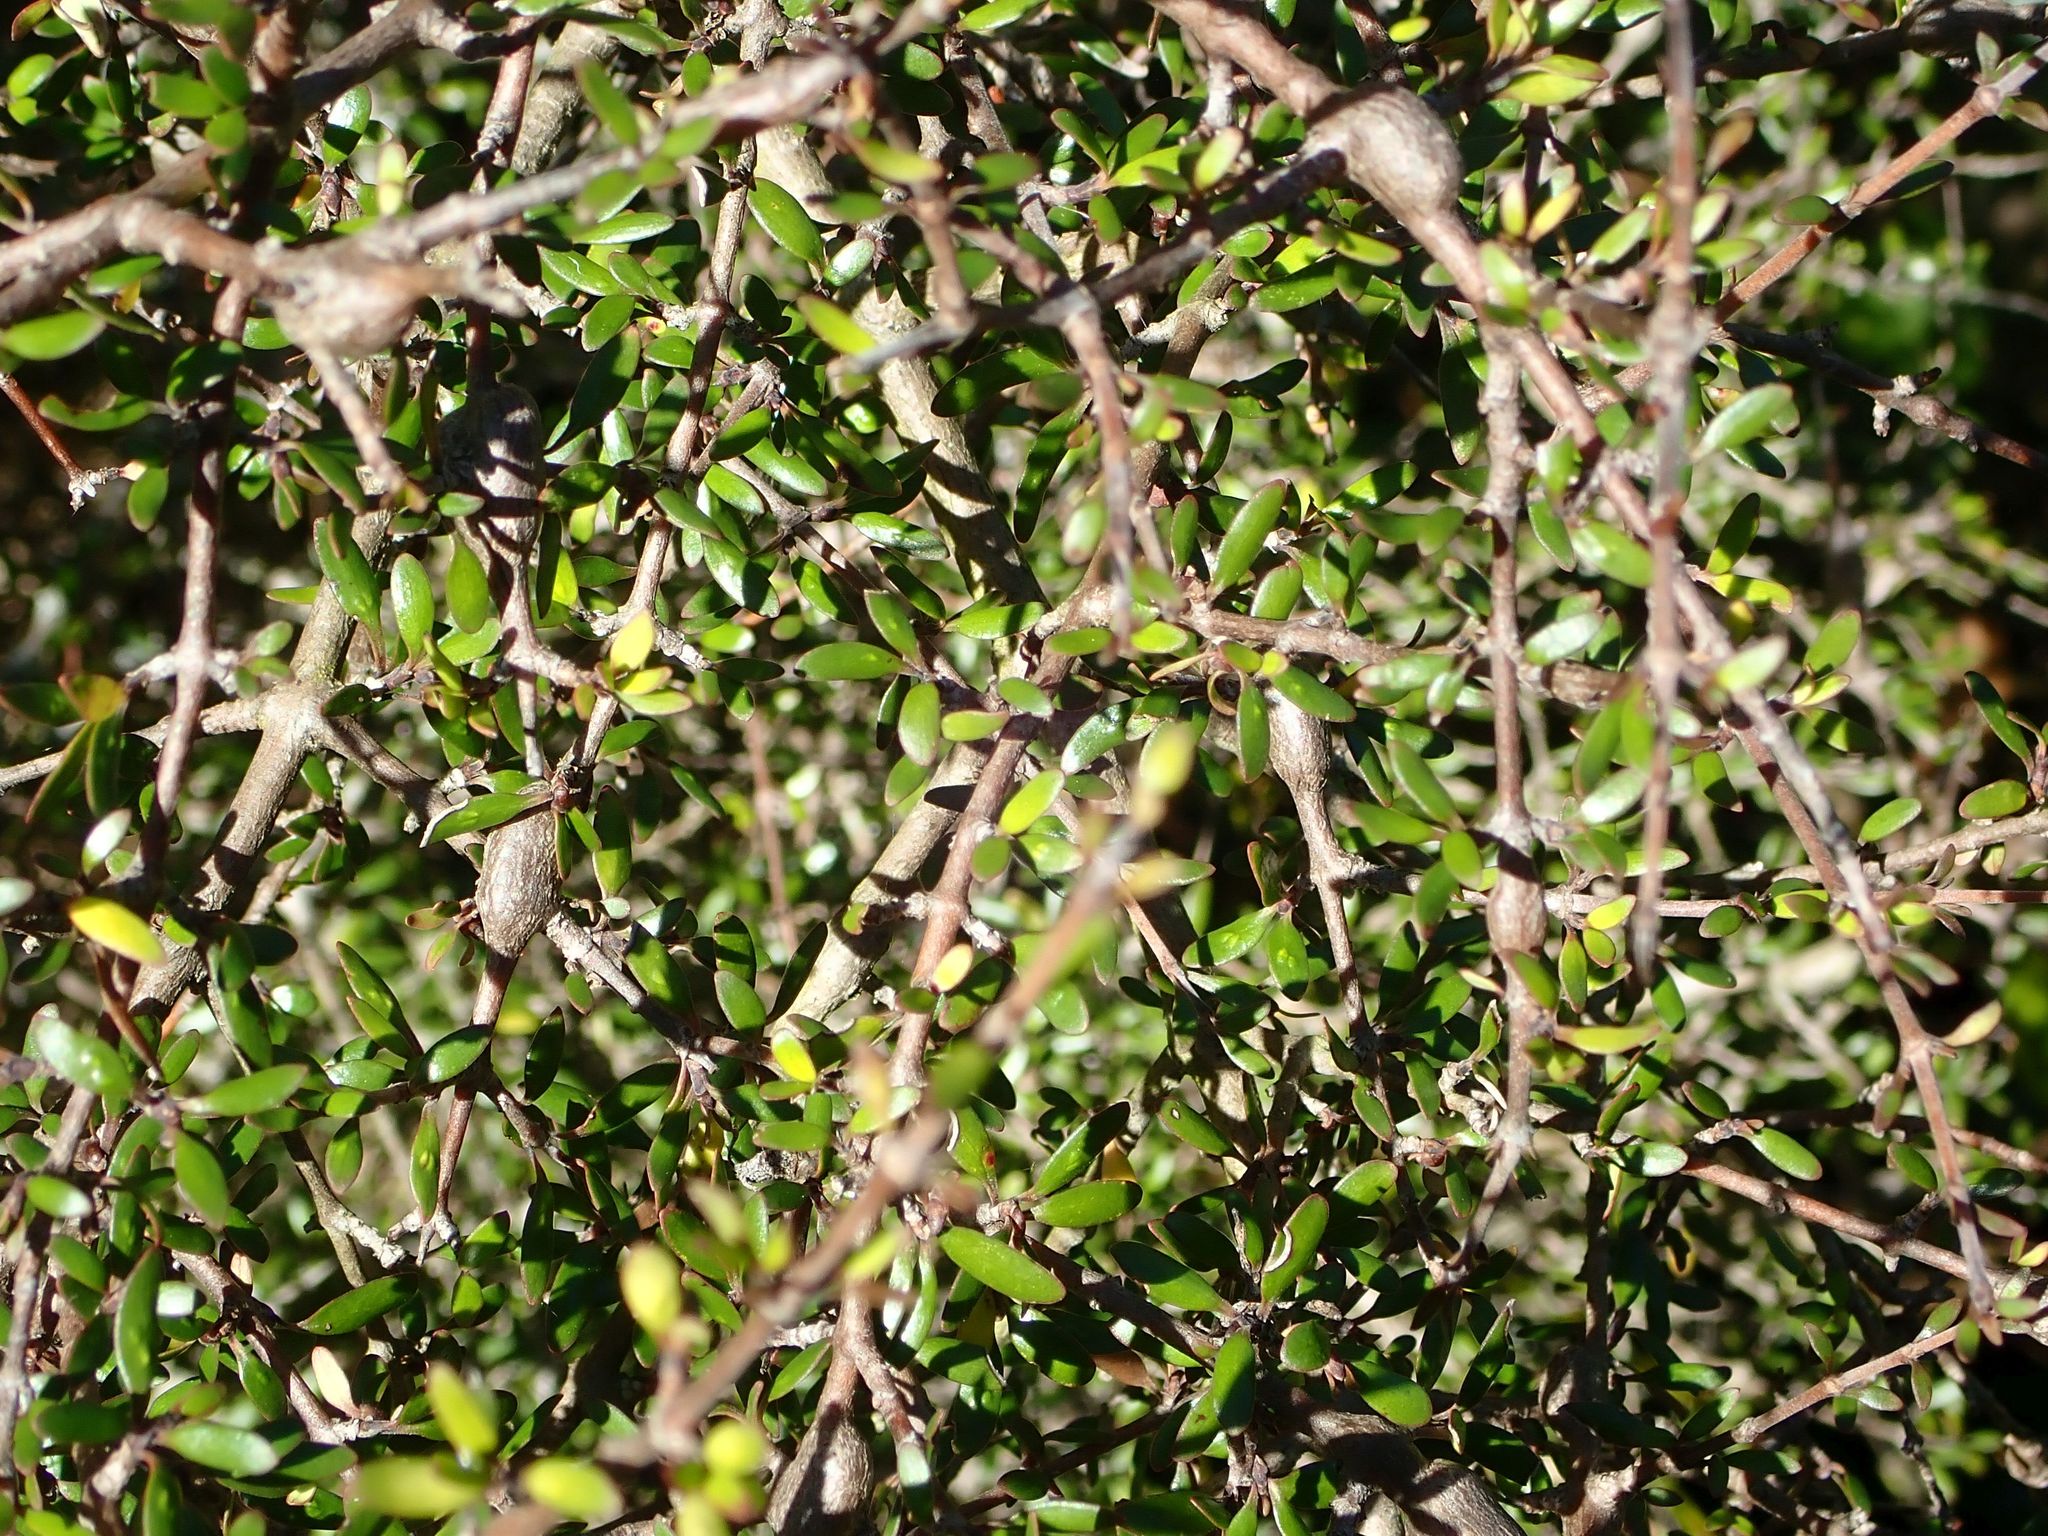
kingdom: Plantae
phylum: Tracheophyta
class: Magnoliopsida
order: Gentianales
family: Rubiaceae
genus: Coprosma
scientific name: Coprosma propinqua
